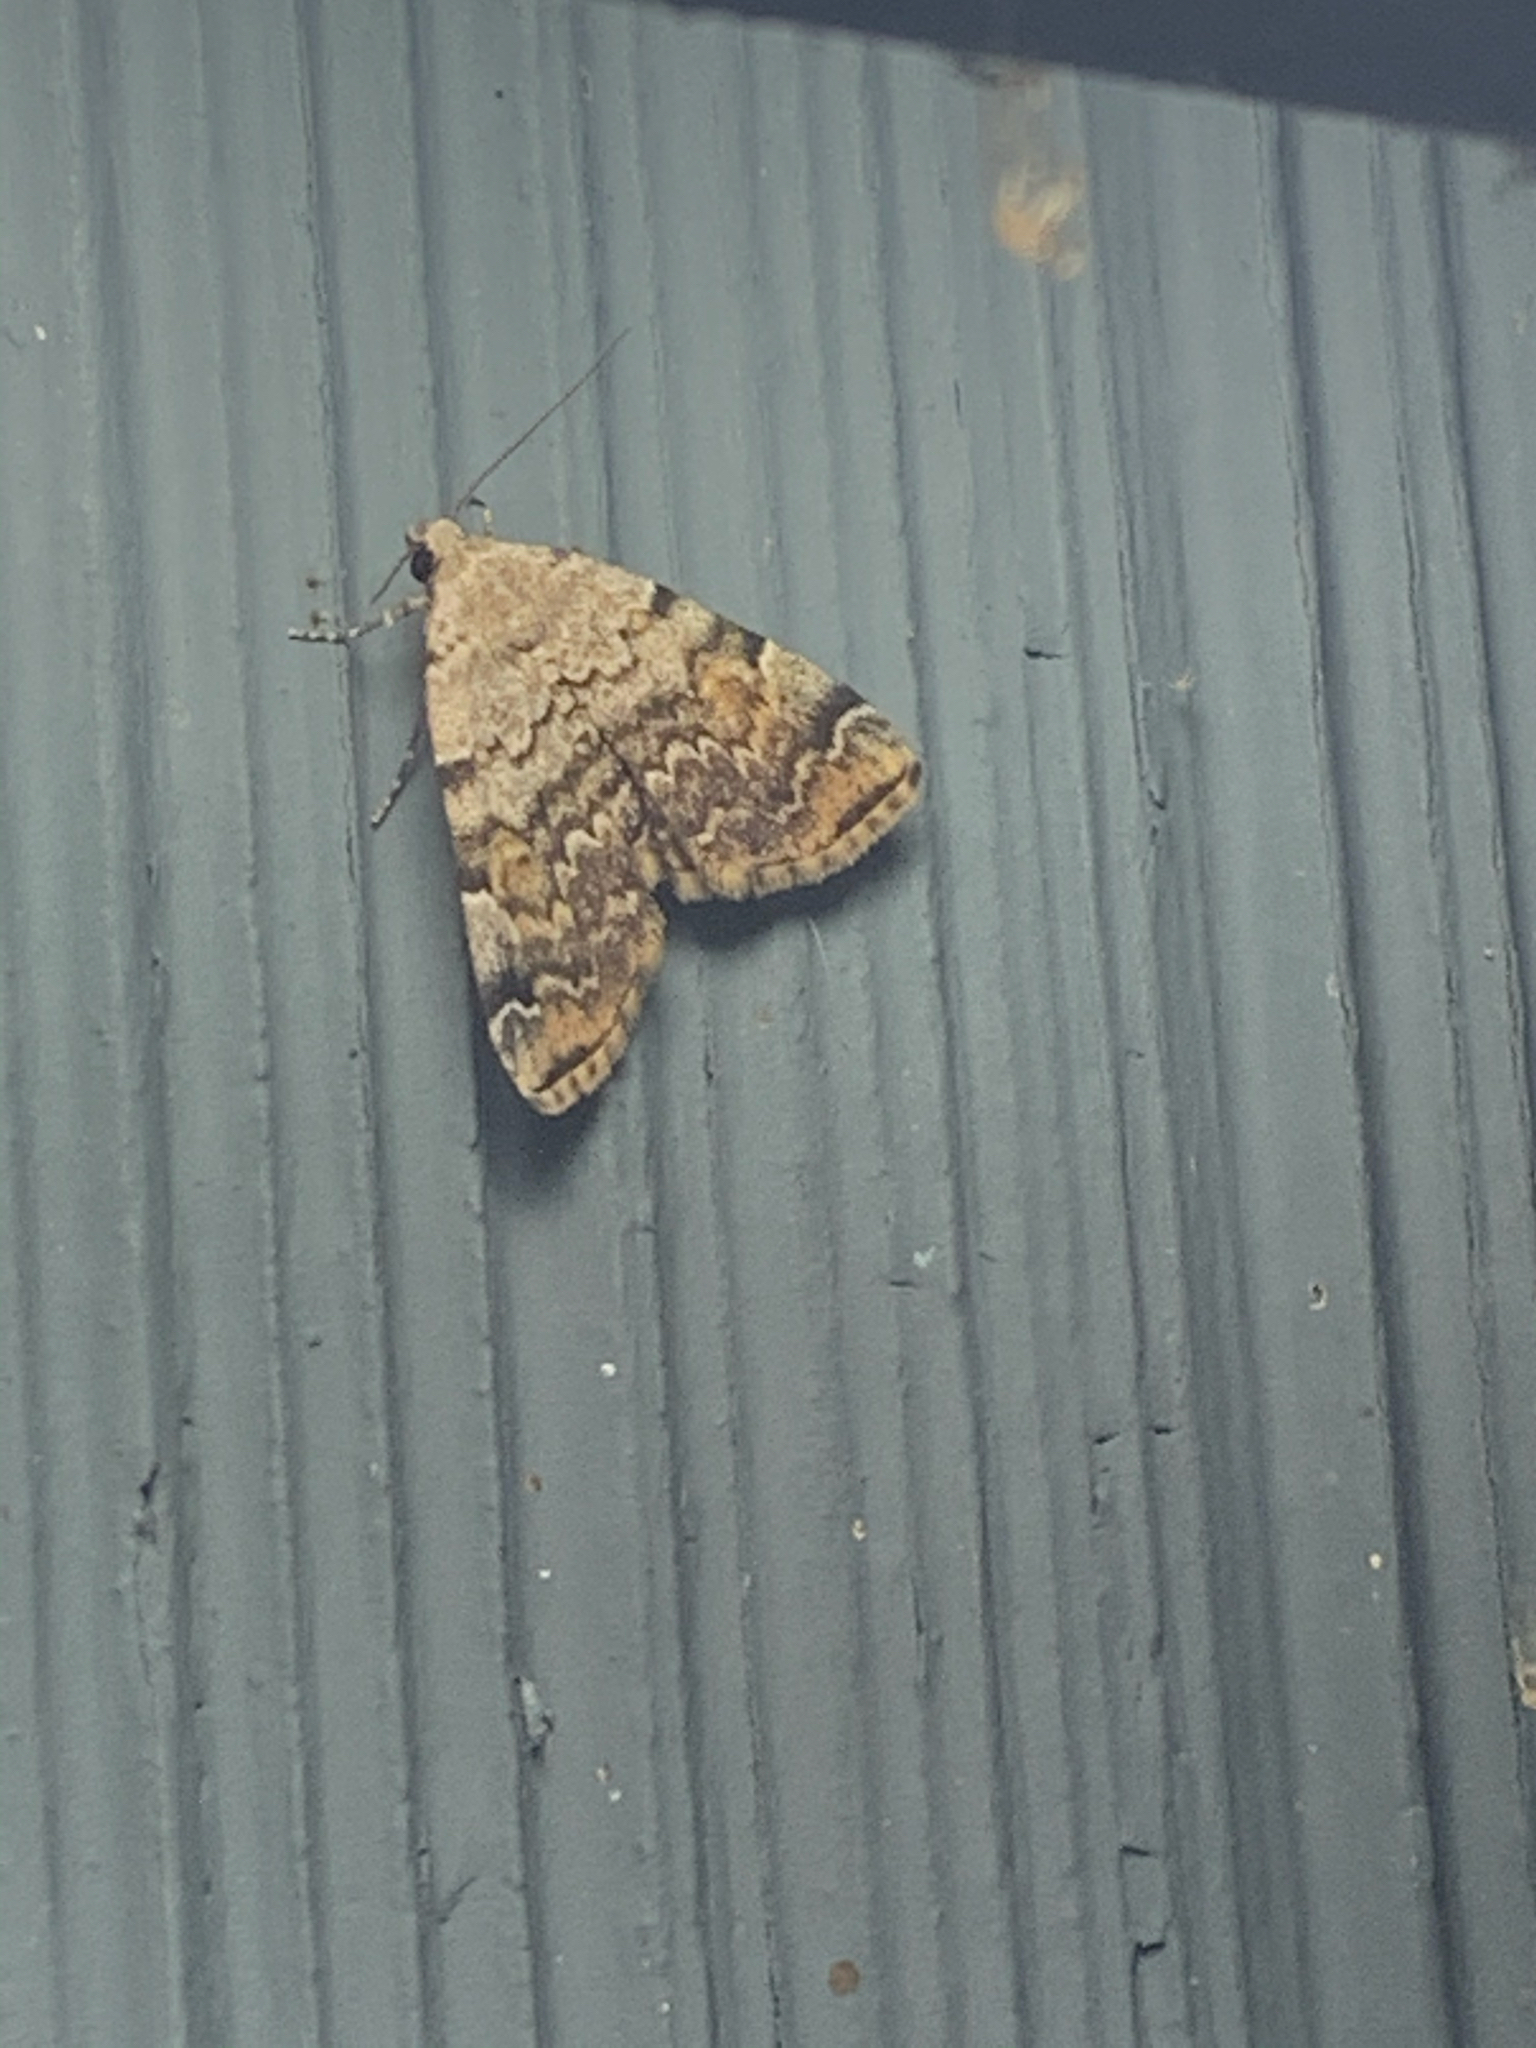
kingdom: Animalia
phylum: Arthropoda
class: Insecta
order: Lepidoptera
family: Erebidae
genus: Idia
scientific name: Idia americalis
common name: American idia moth
